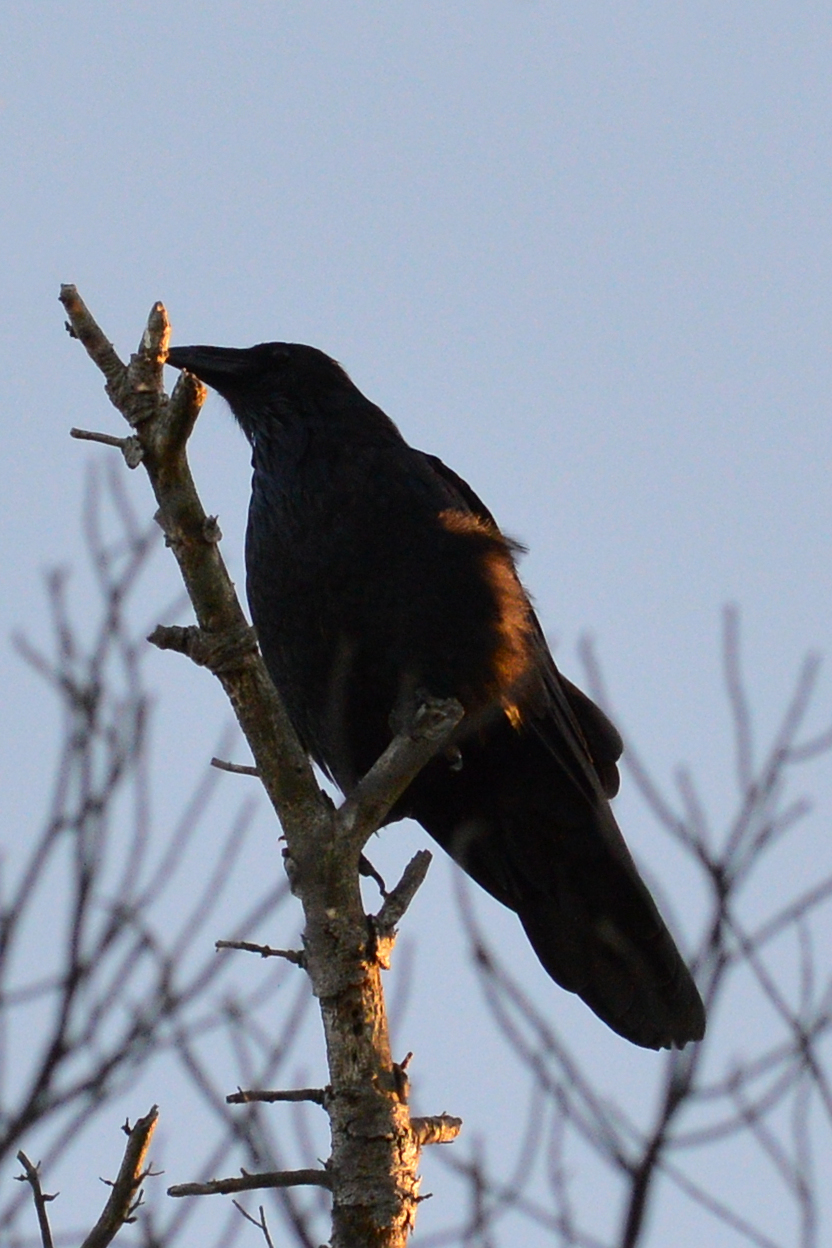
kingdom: Animalia
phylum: Chordata
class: Aves
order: Passeriformes
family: Corvidae
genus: Corvus
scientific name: Corvus brachyrhynchos
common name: American crow
